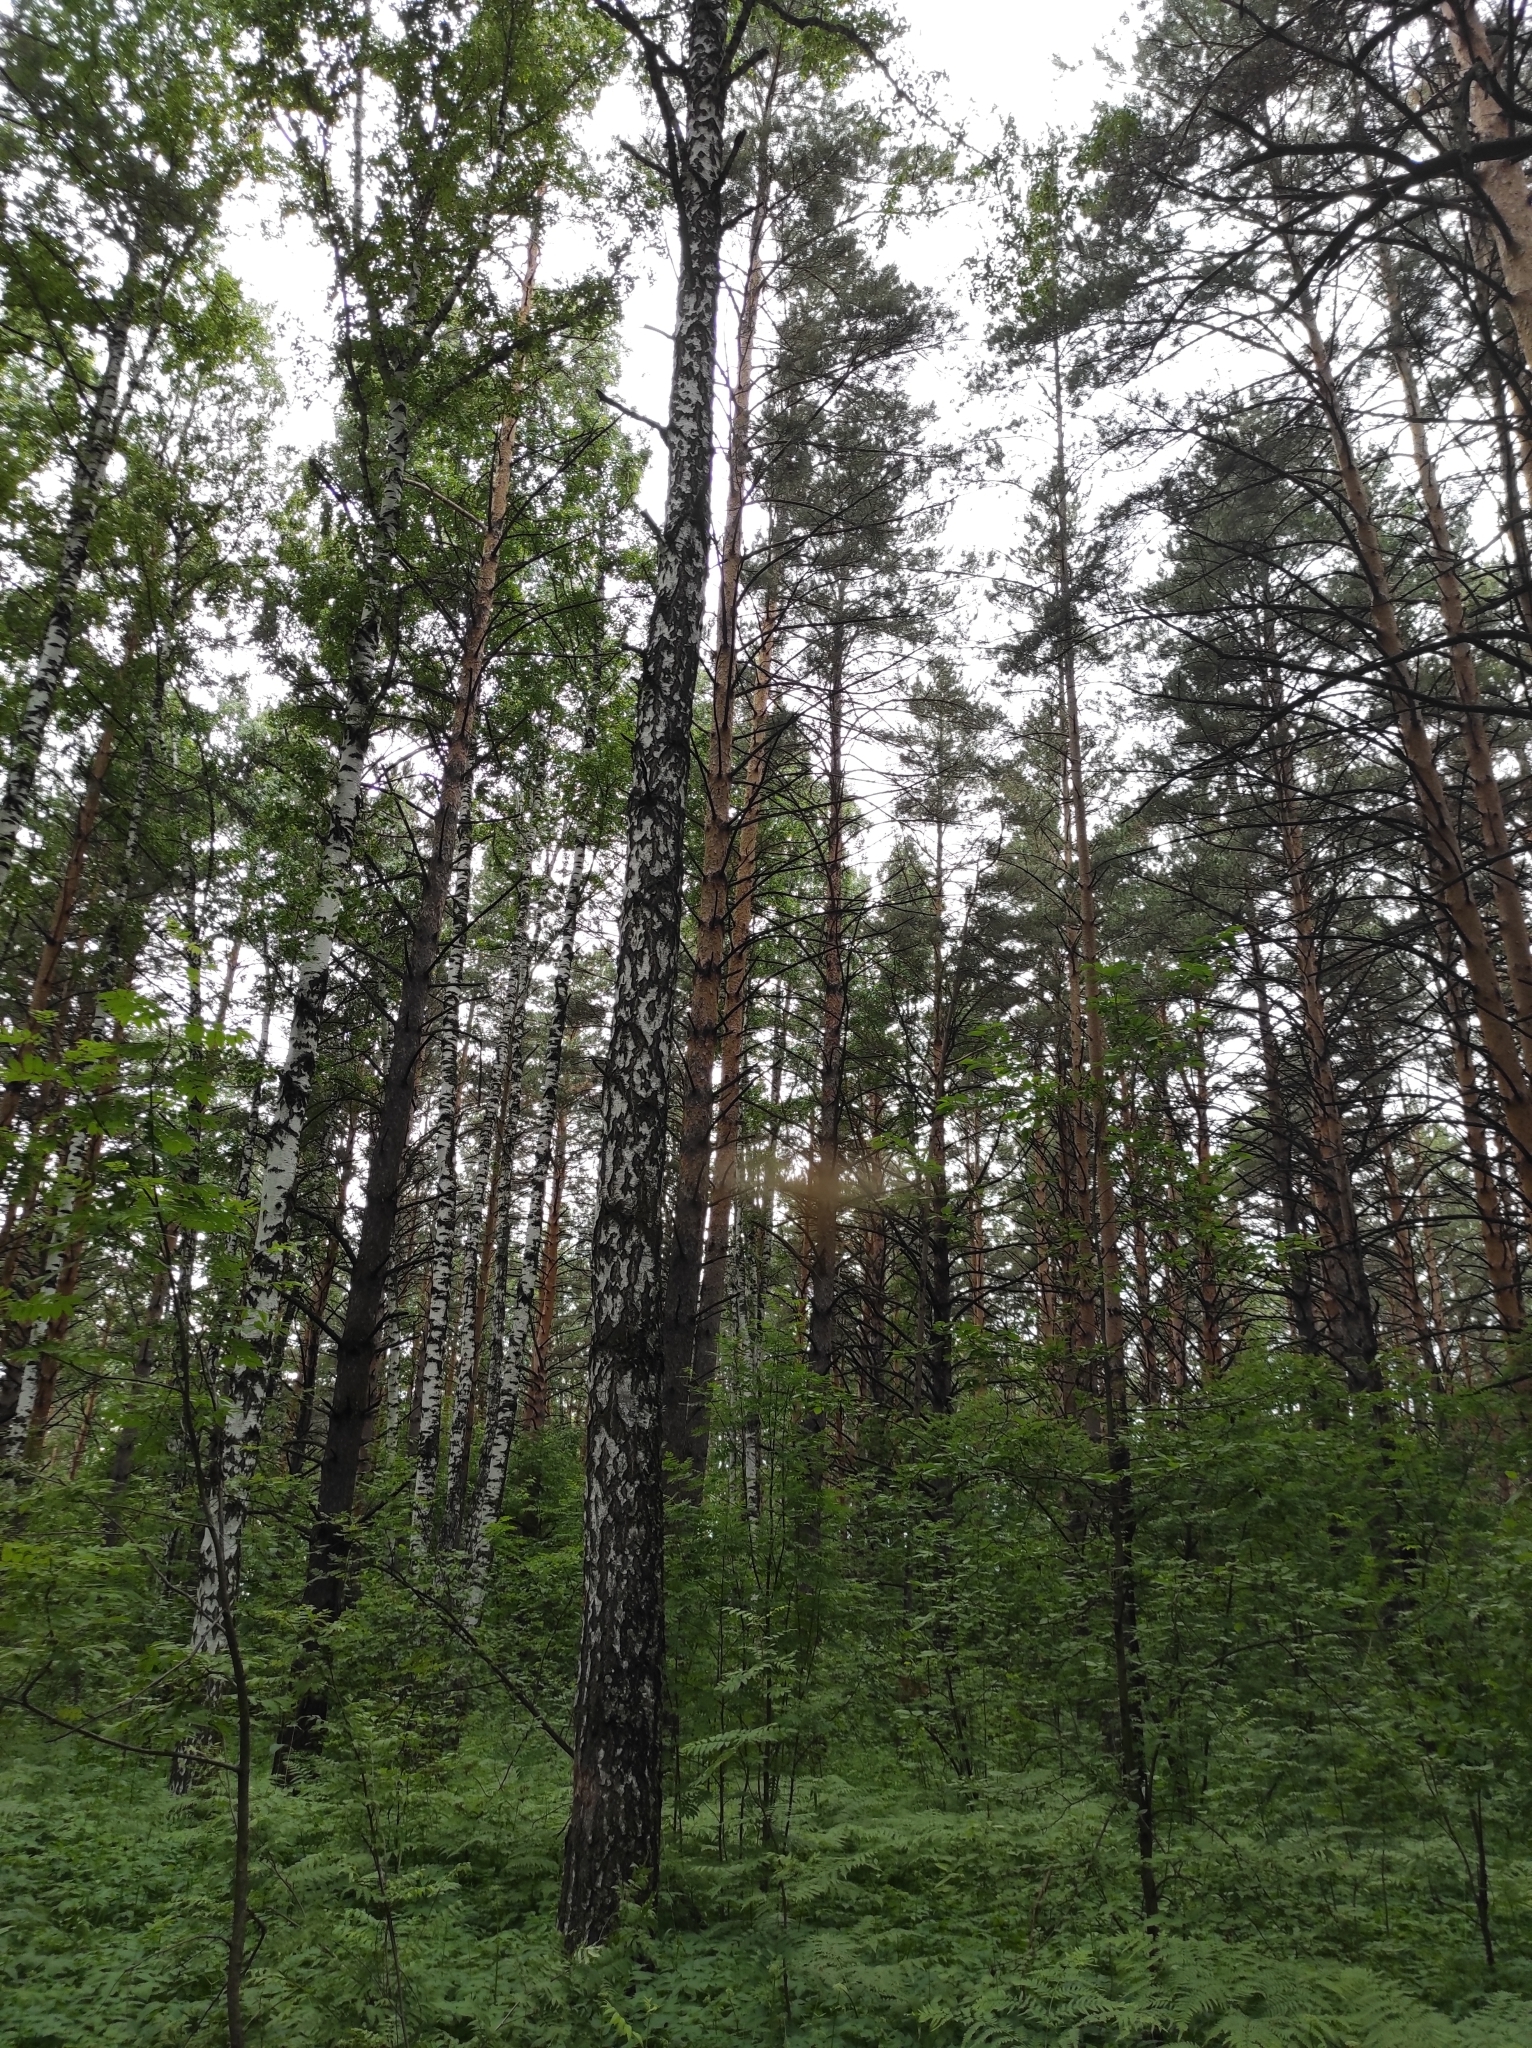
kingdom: Plantae
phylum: Tracheophyta
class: Pinopsida
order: Pinales
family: Pinaceae
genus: Pinus
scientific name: Pinus sylvestris
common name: Scots pine
